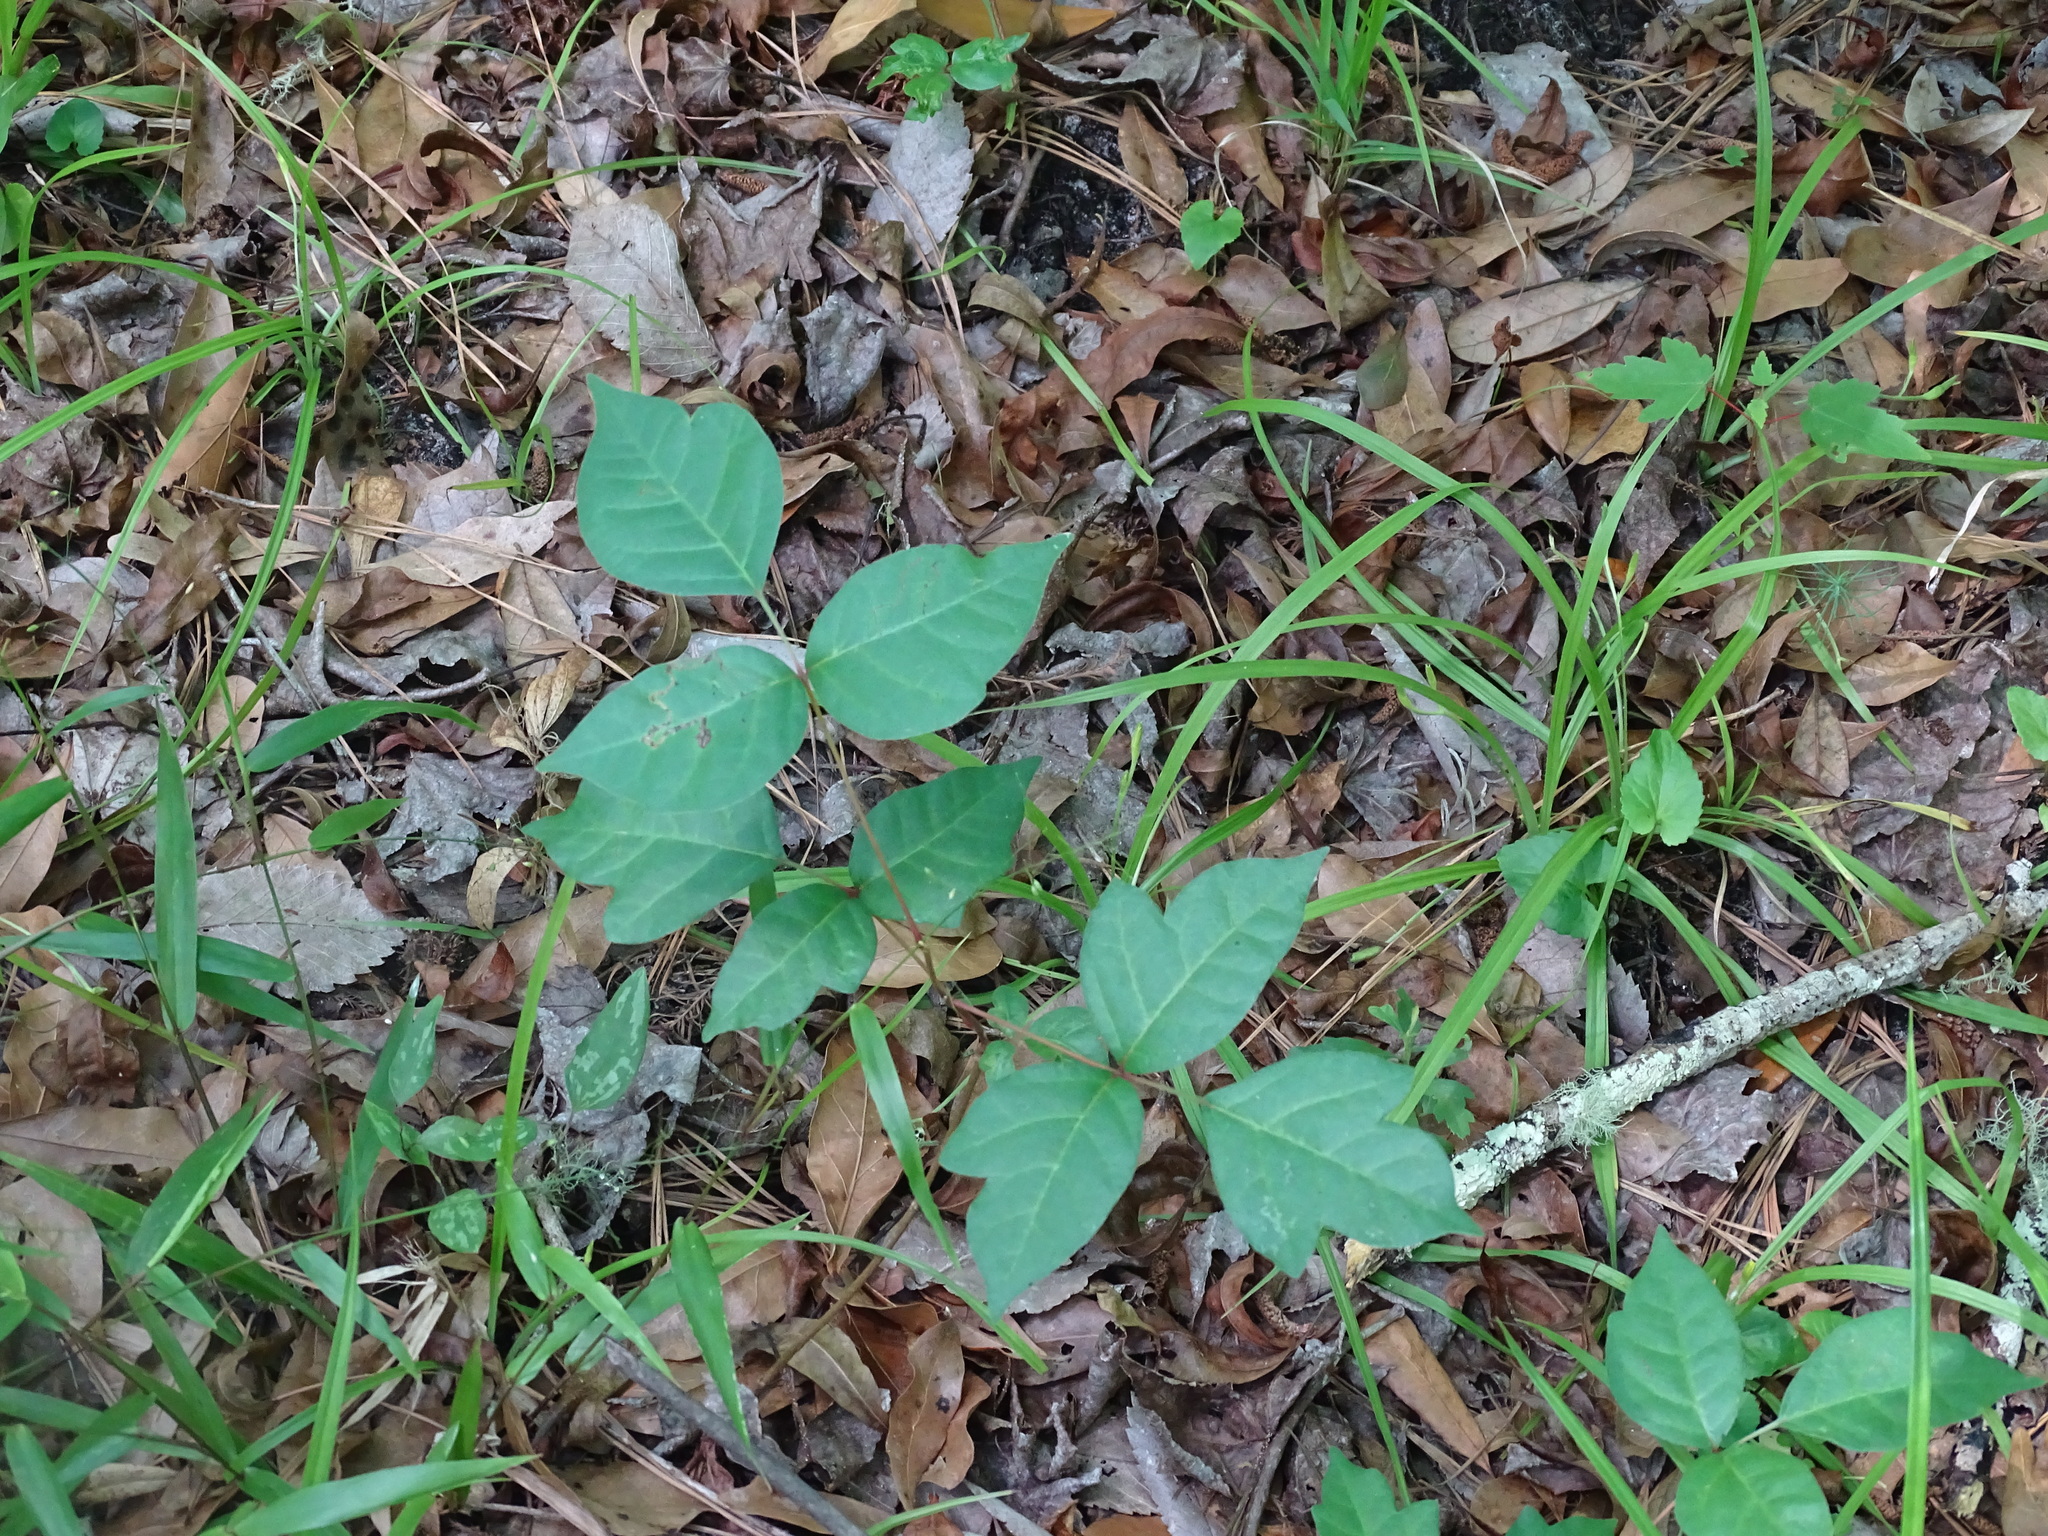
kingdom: Plantae
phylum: Tracheophyta
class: Magnoliopsida
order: Sapindales
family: Anacardiaceae
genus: Toxicodendron
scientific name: Toxicodendron radicans
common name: Poison ivy
